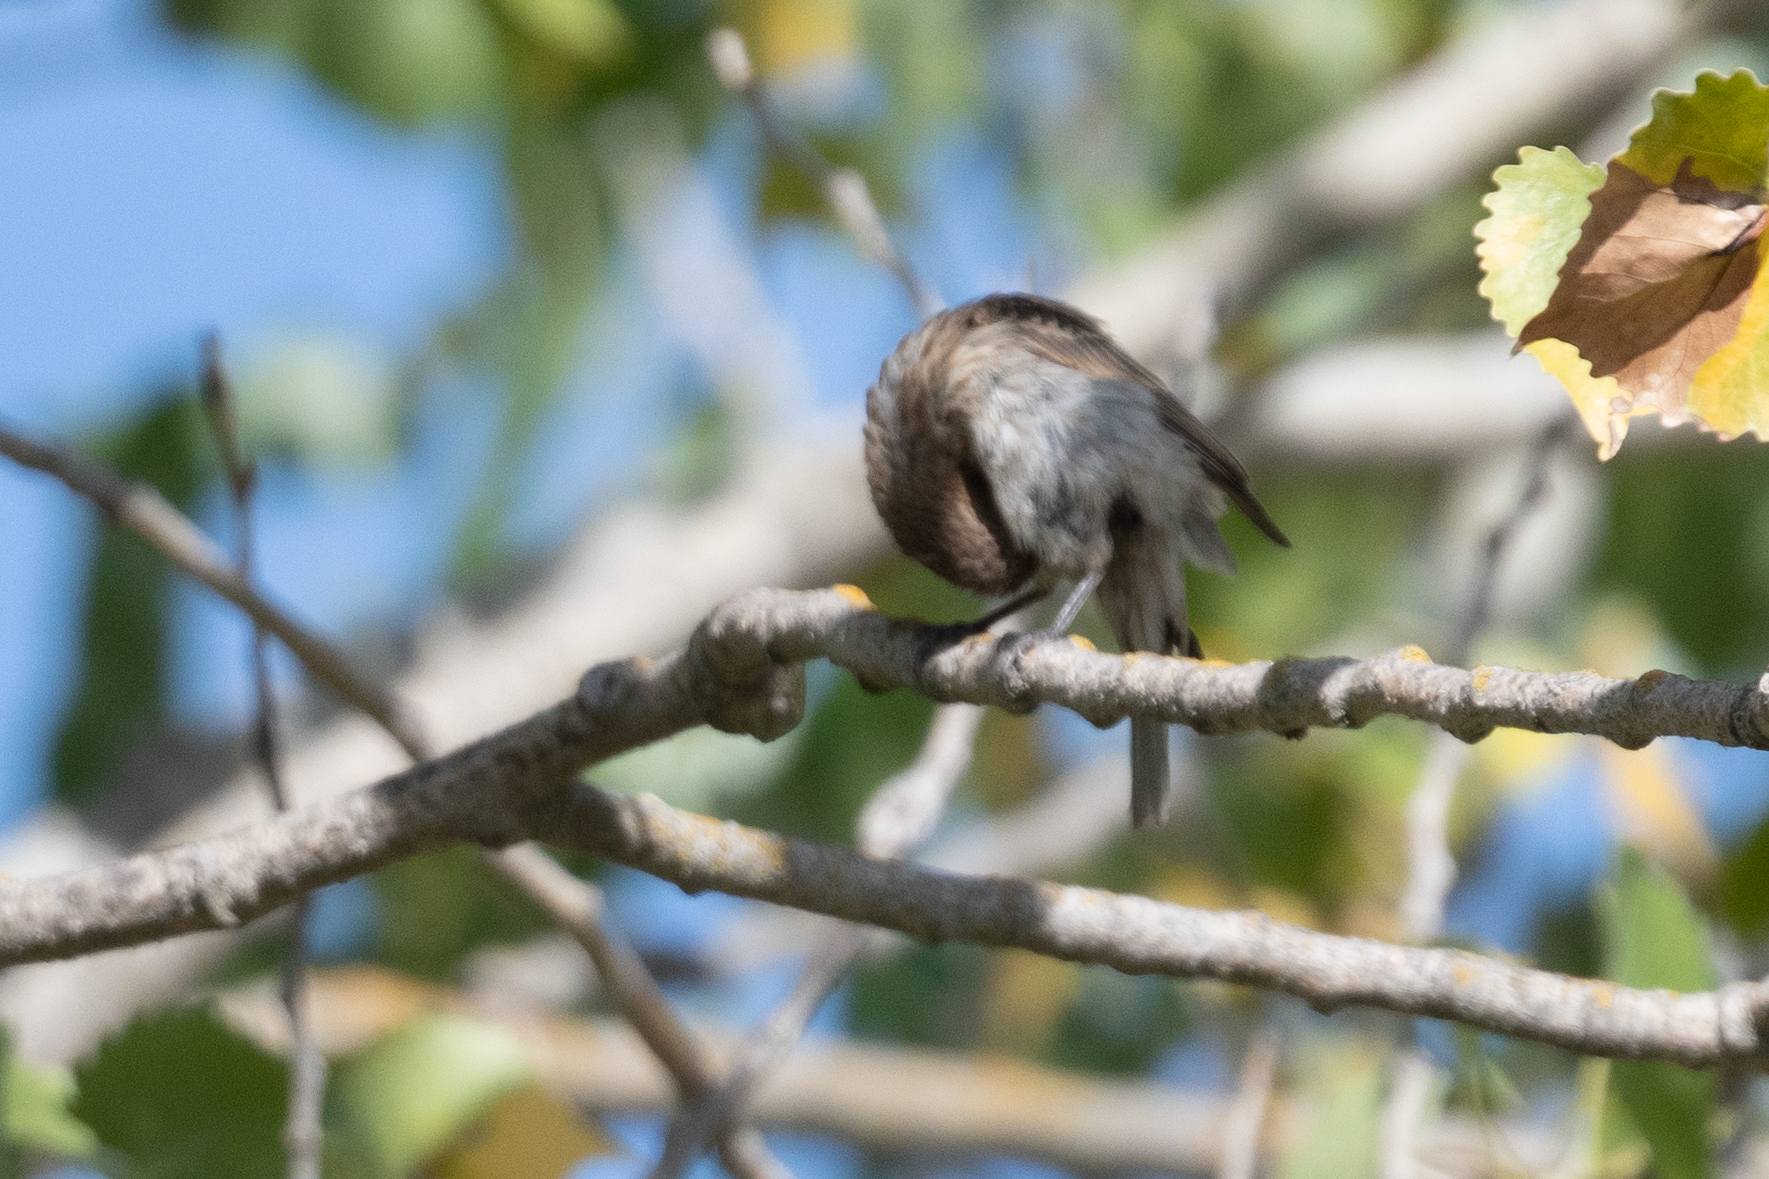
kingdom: Animalia
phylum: Chordata
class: Aves
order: Passeriformes
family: Fringillidae
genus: Haemorhous
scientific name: Haemorhous mexicanus
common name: House finch
